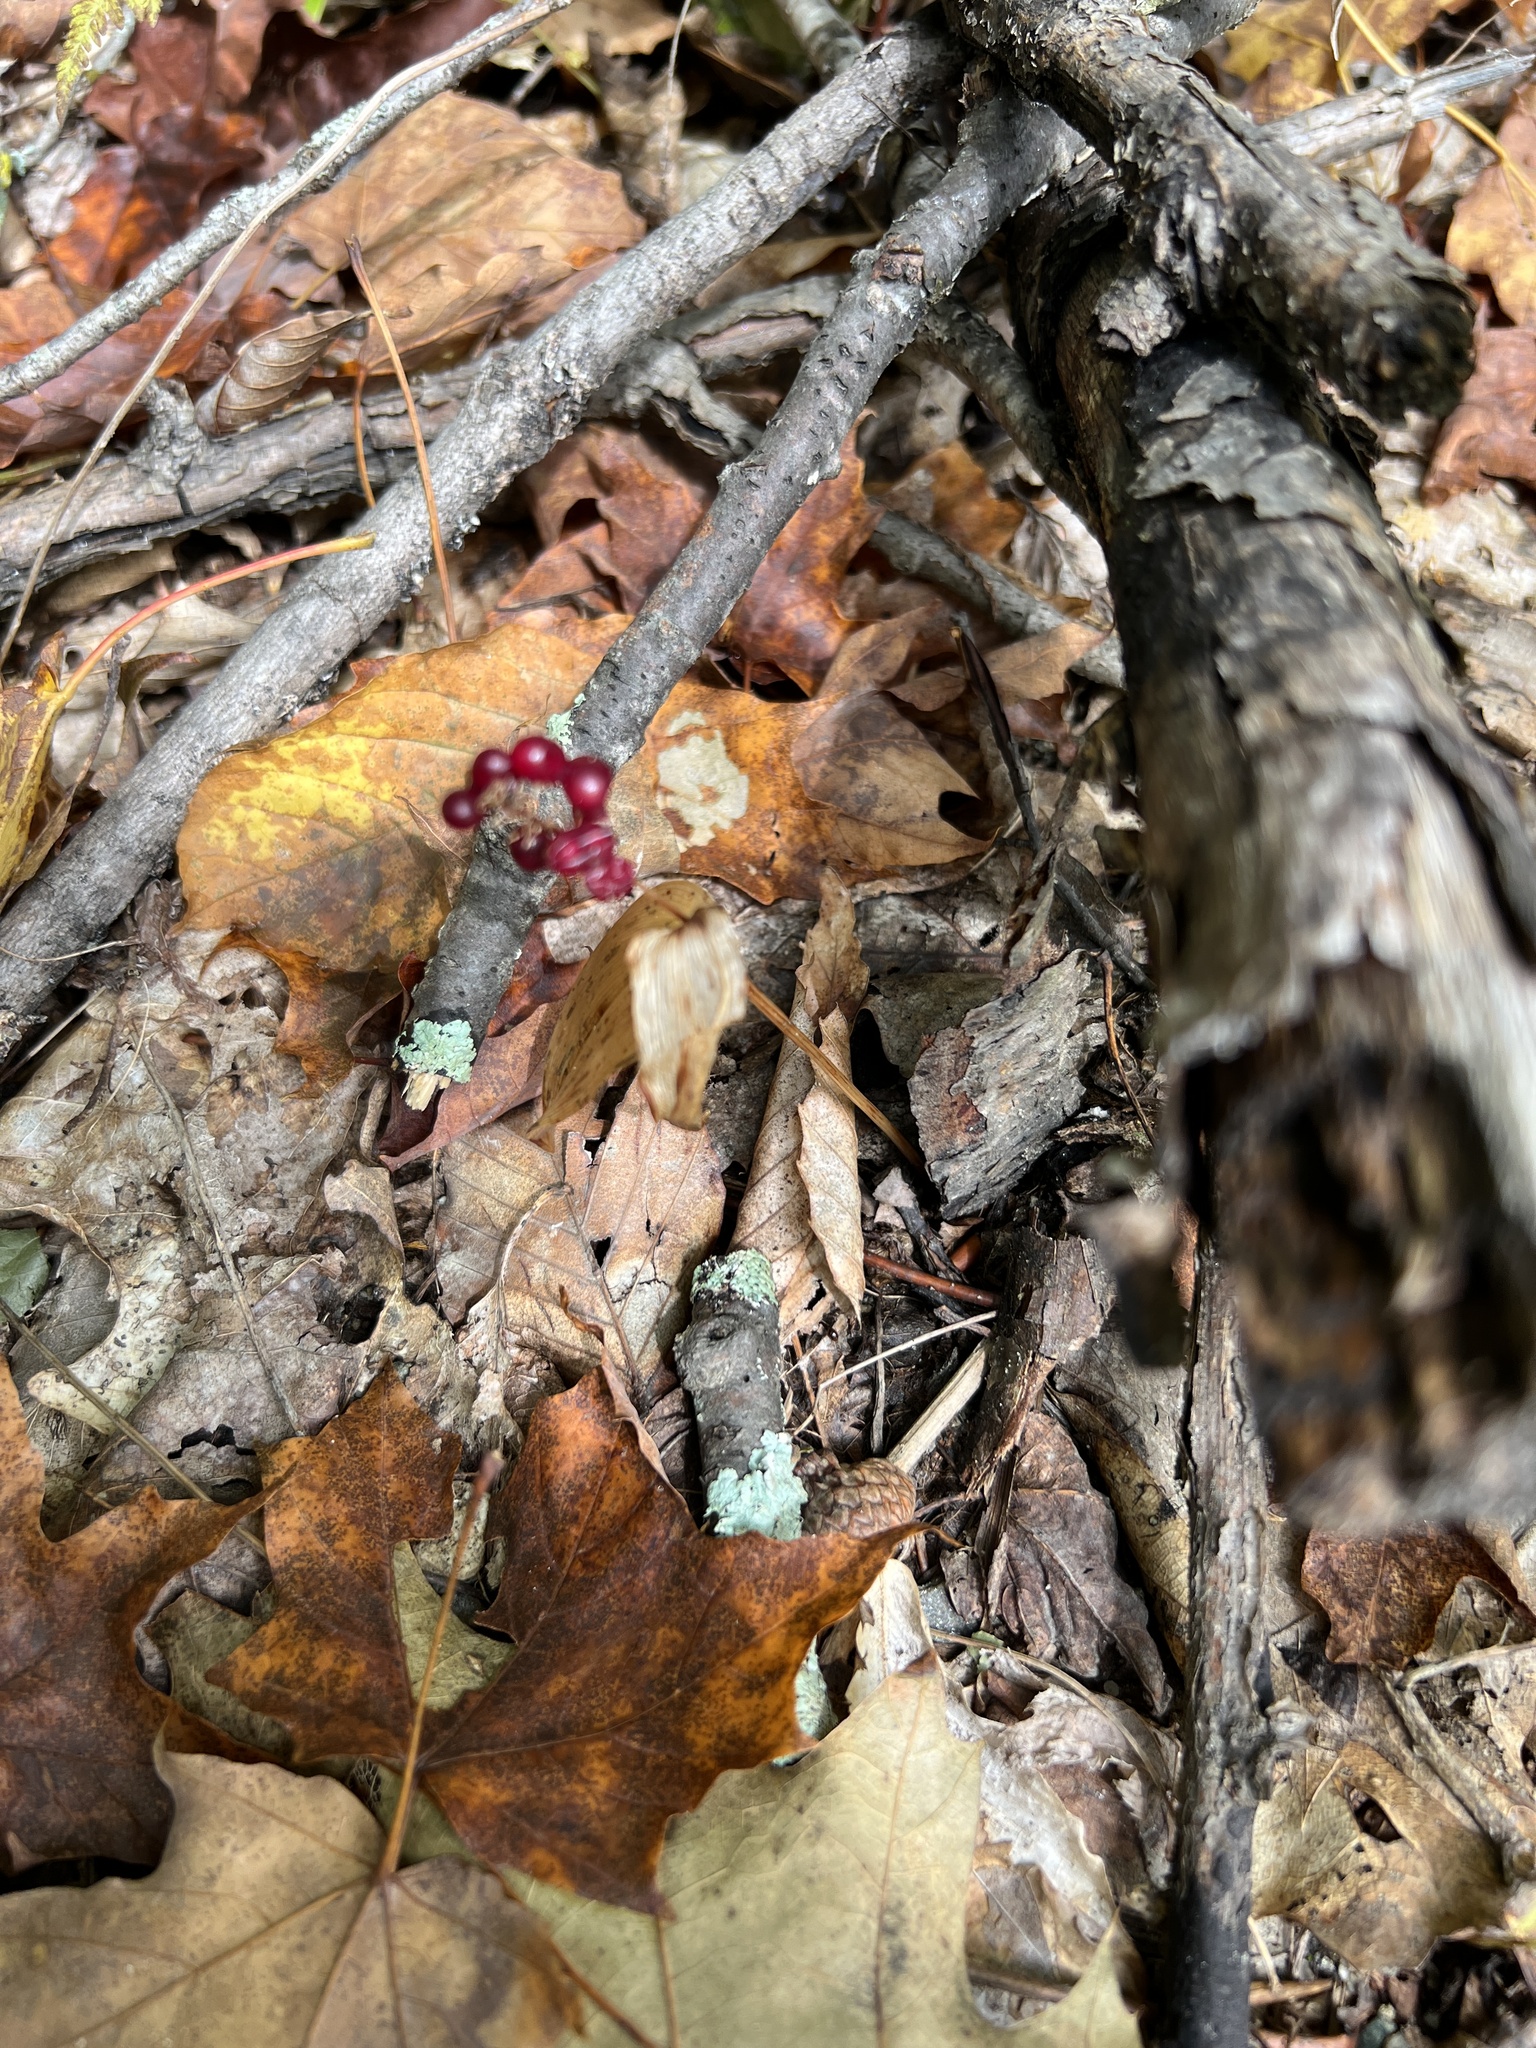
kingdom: Plantae
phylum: Tracheophyta
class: Liliopsida
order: Asparagales
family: Asparagaceae
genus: Maianthemum
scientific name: Maianthemum canadense
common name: False lily-of-the-valley
